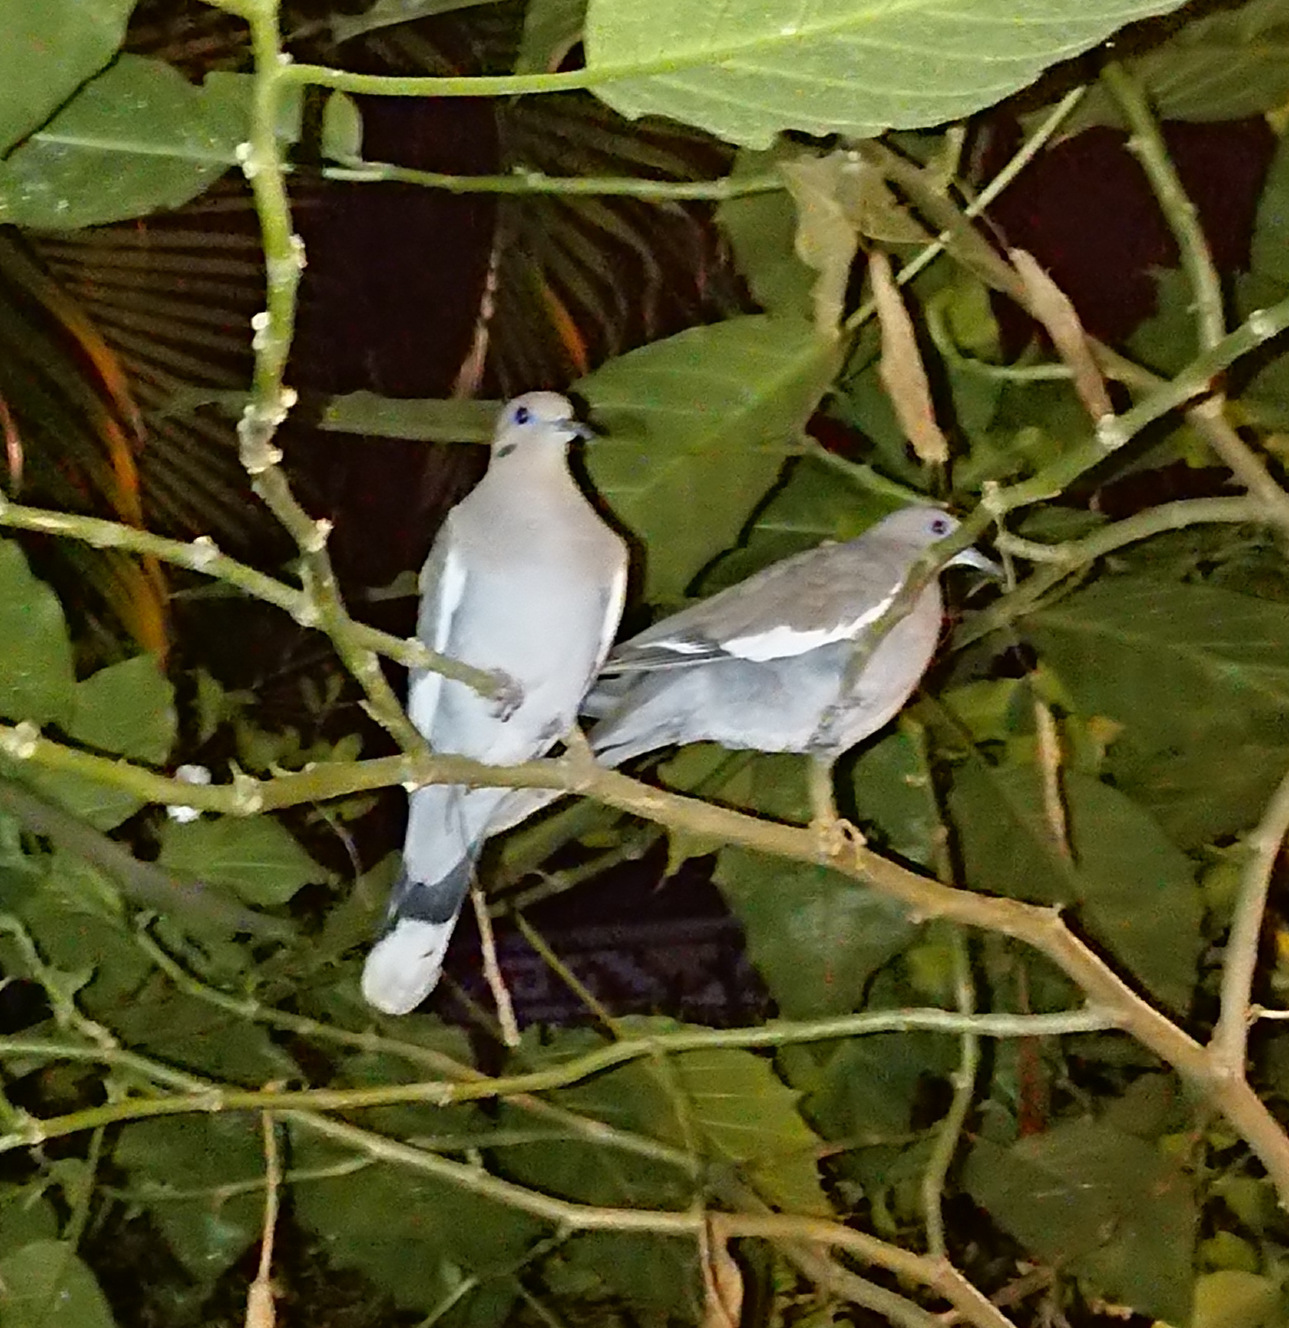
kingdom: Animalia
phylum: Chordata
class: Aves
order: Columbiformes
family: Columbidae
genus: Zenaida
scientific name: Zenaida asiatica
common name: White-winged dove
